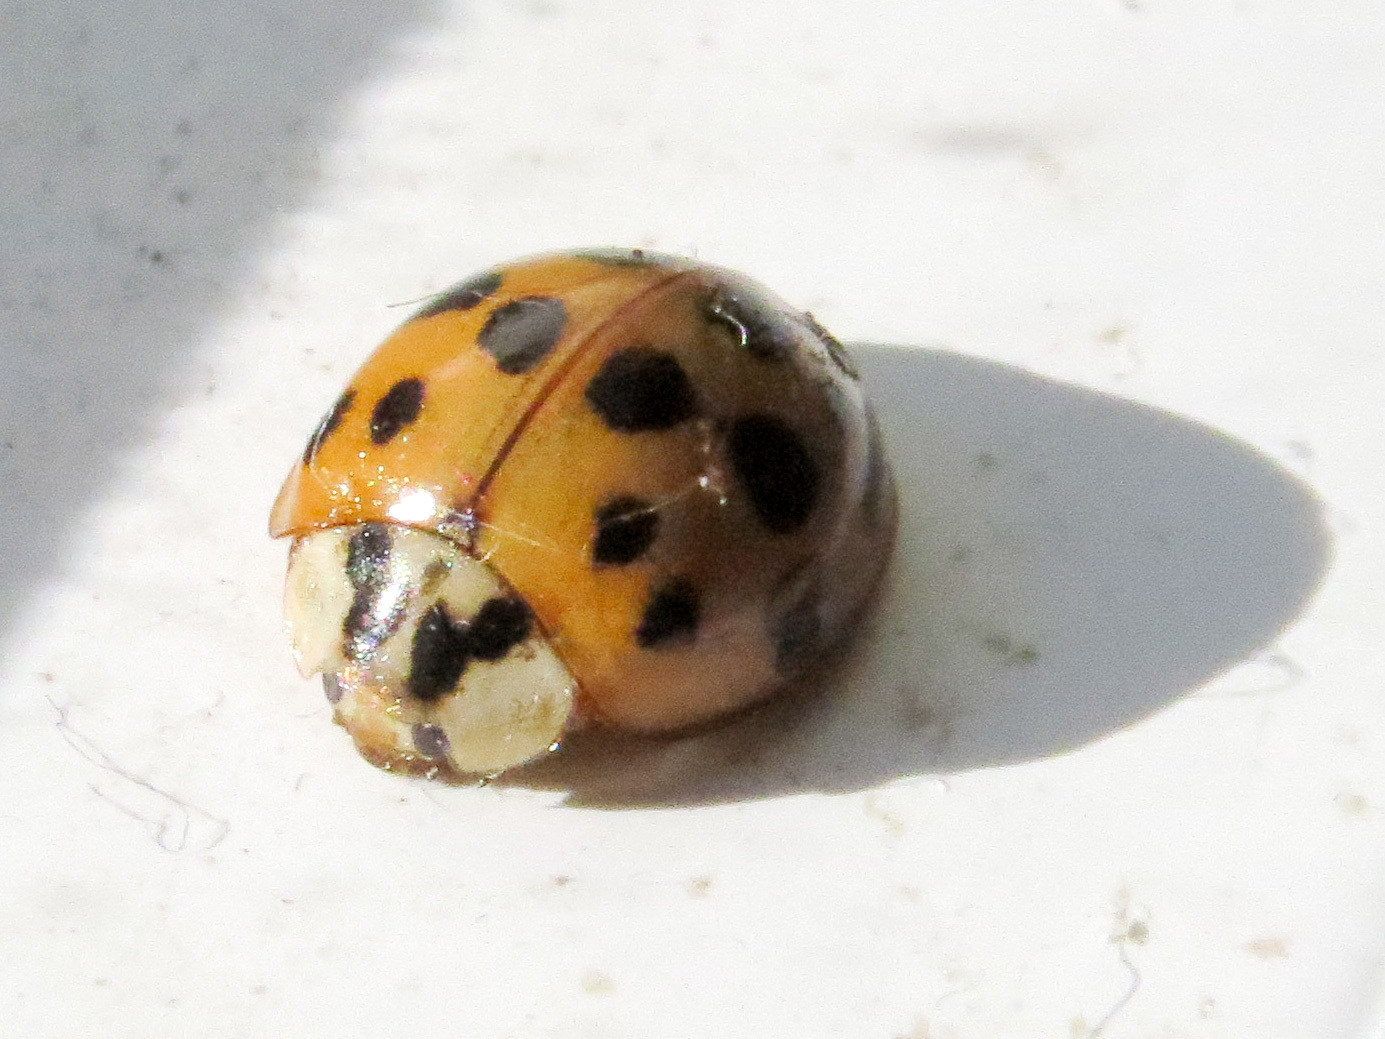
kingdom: Animalia
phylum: Arthropoda
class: Insecta
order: Coleoptera
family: Coccinellidae
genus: Harmonia
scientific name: Harmonia axyridis
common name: Harlequin ladybird
